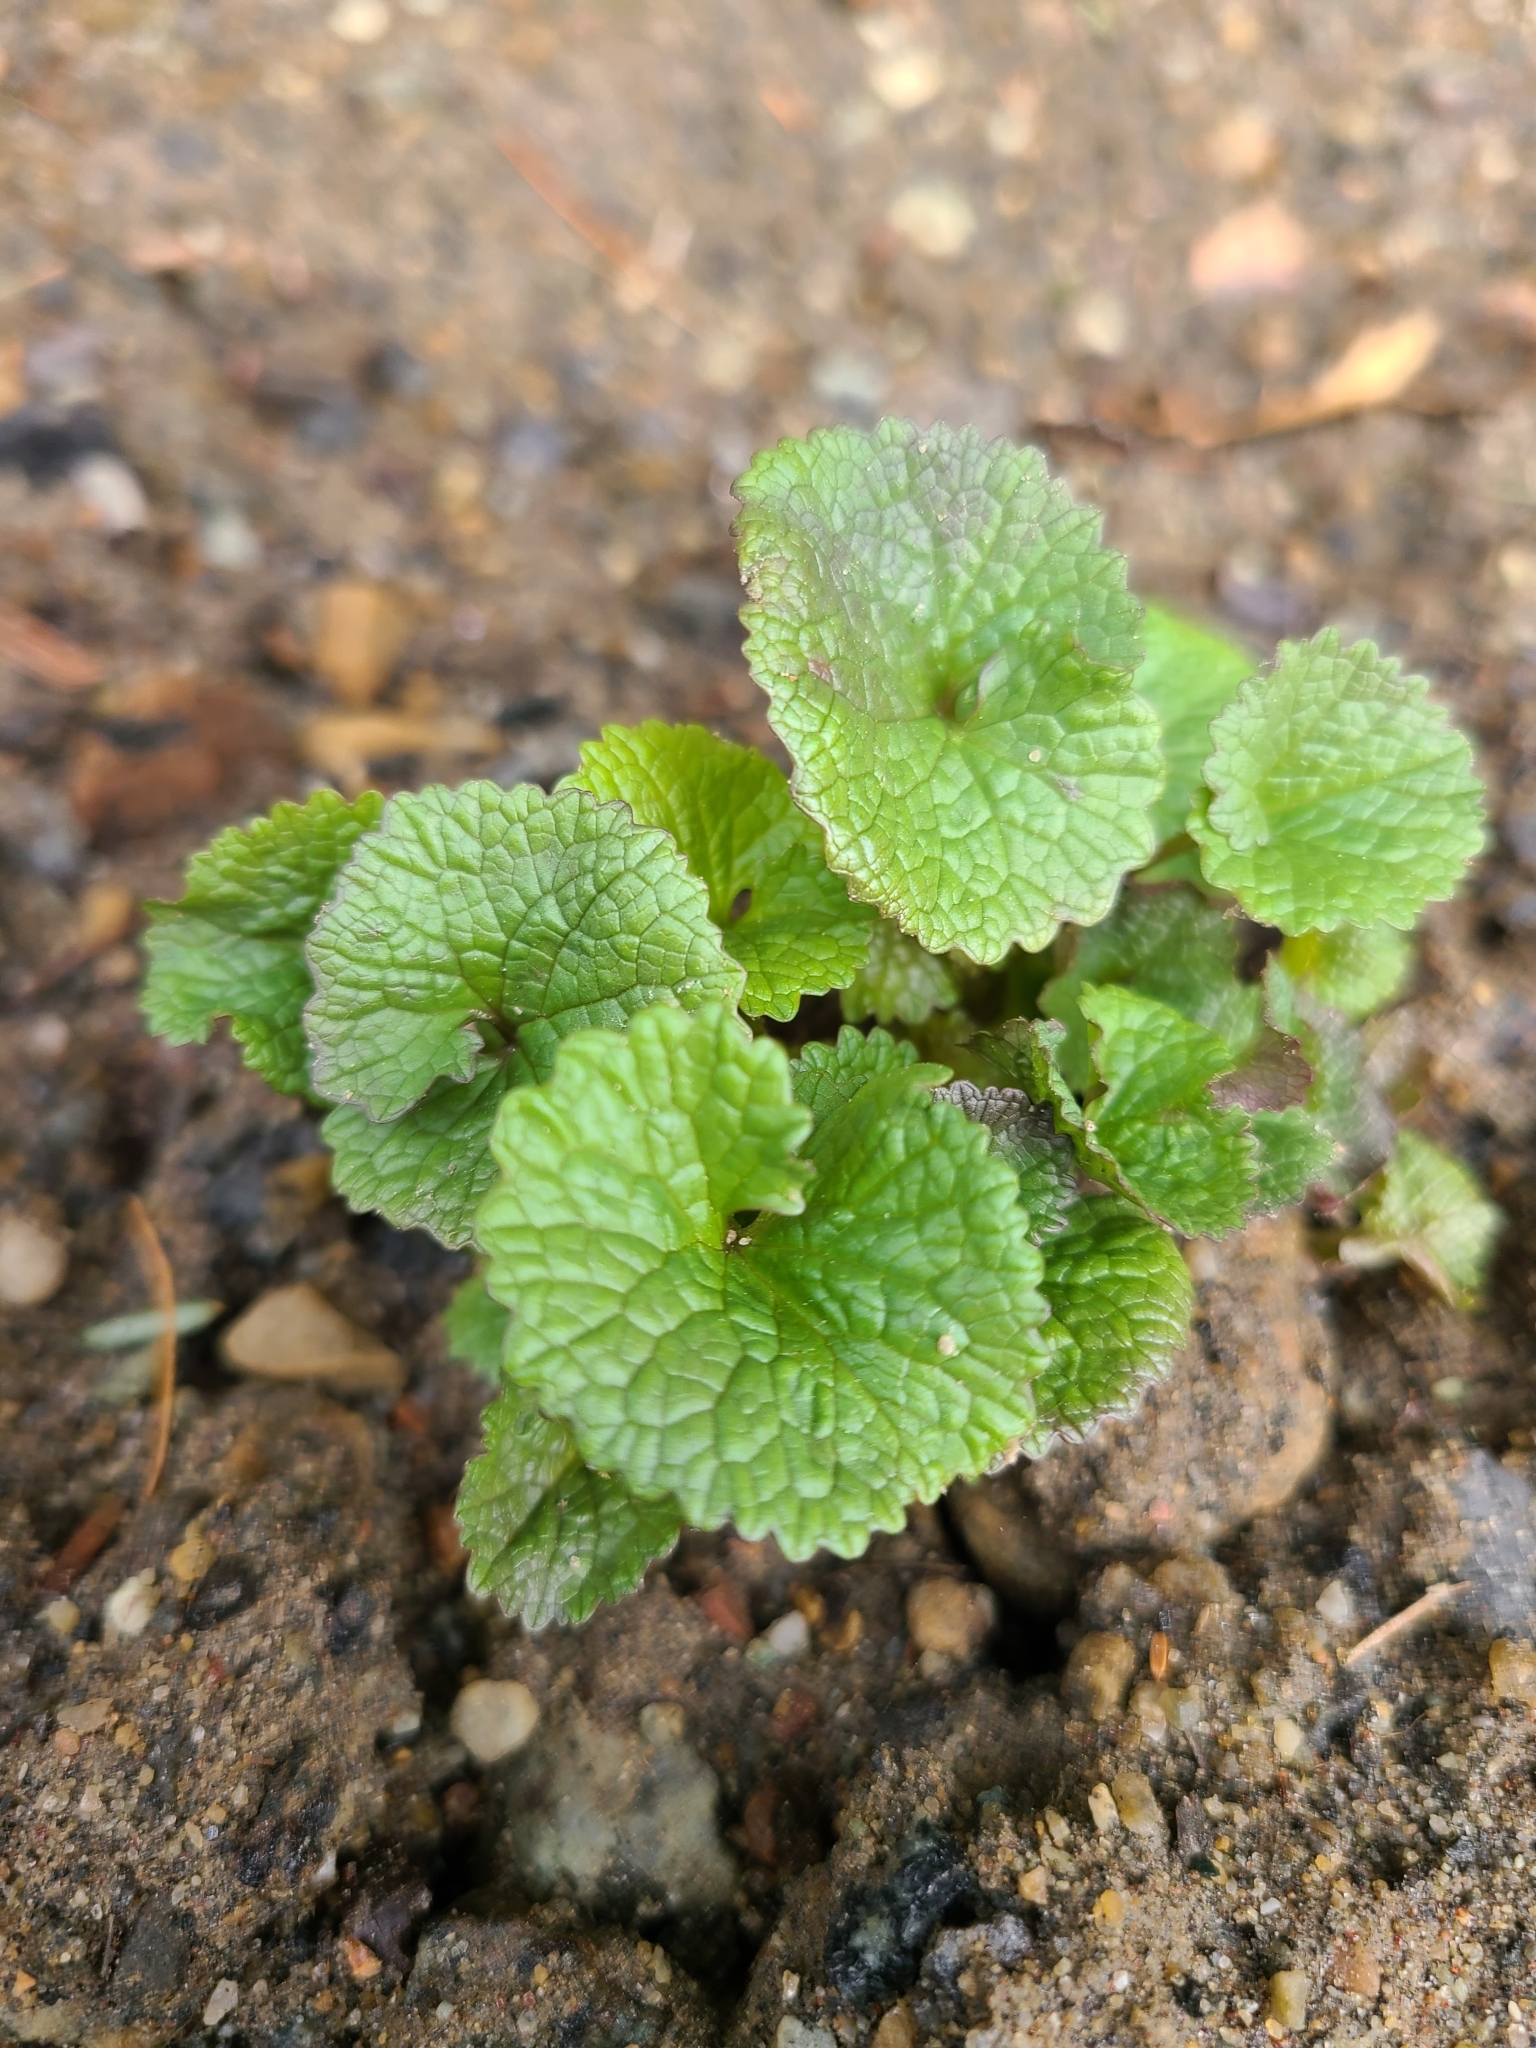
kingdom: Plantae
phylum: Tracheophyta
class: Magnoliopsida
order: Brassicales
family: Brassicaceae
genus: Alliaria
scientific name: Alliaria petiolata
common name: Garlic mustard
